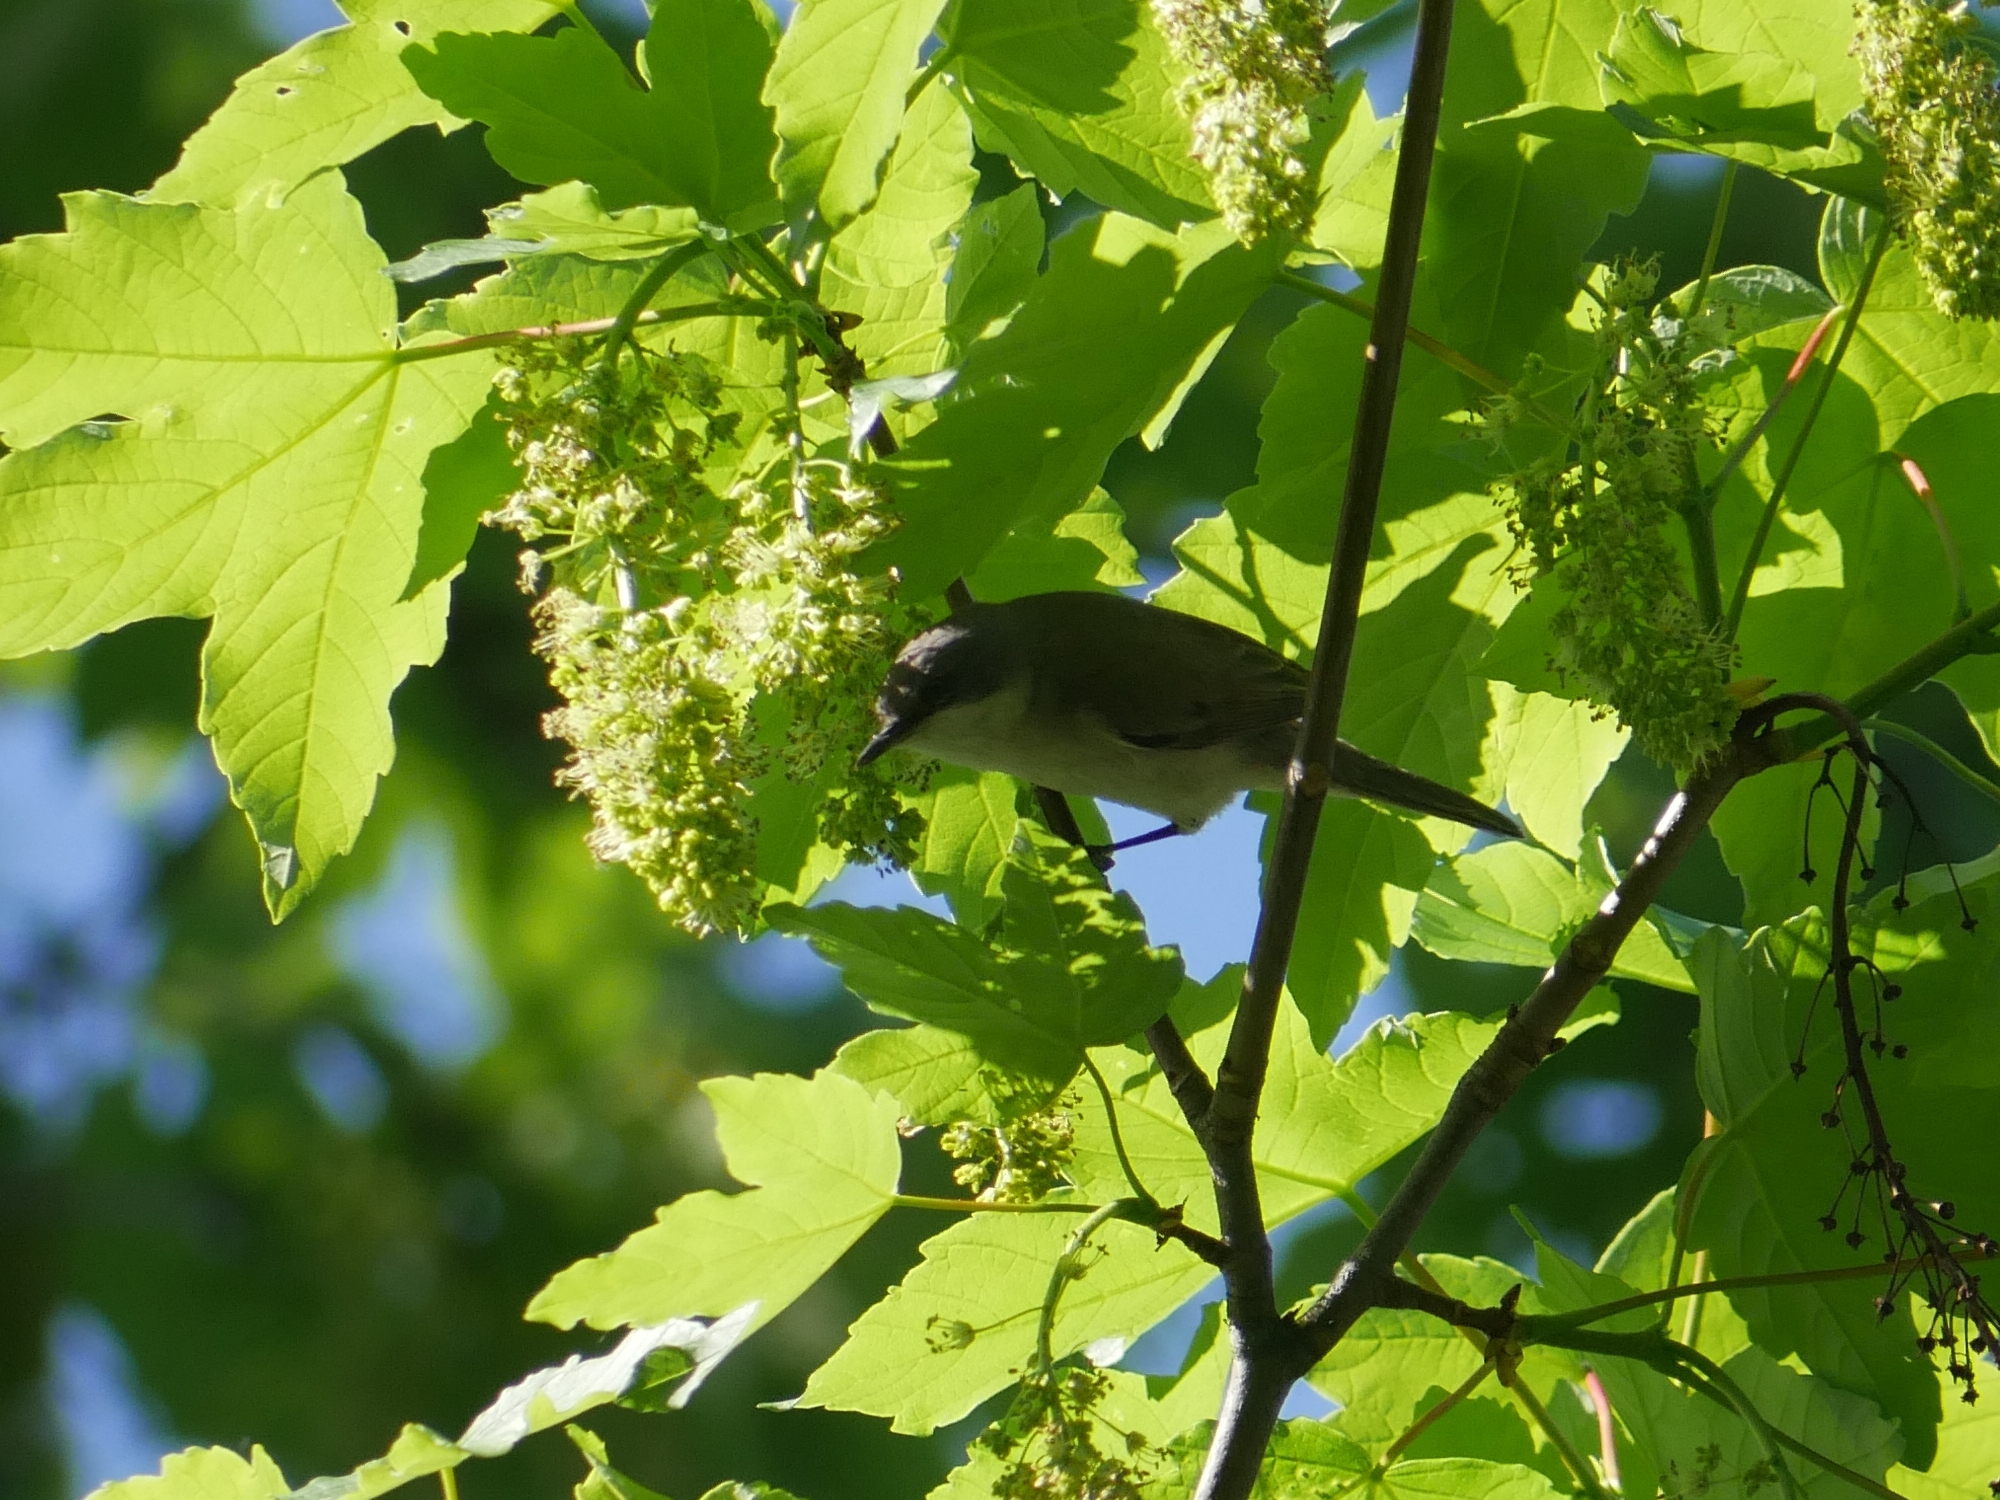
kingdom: Animalia
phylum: Chordata
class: Aves
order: Passeriformes
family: Sylviidae
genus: Sylvia
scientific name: Sylvia curruca
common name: Lesser whitethroat
